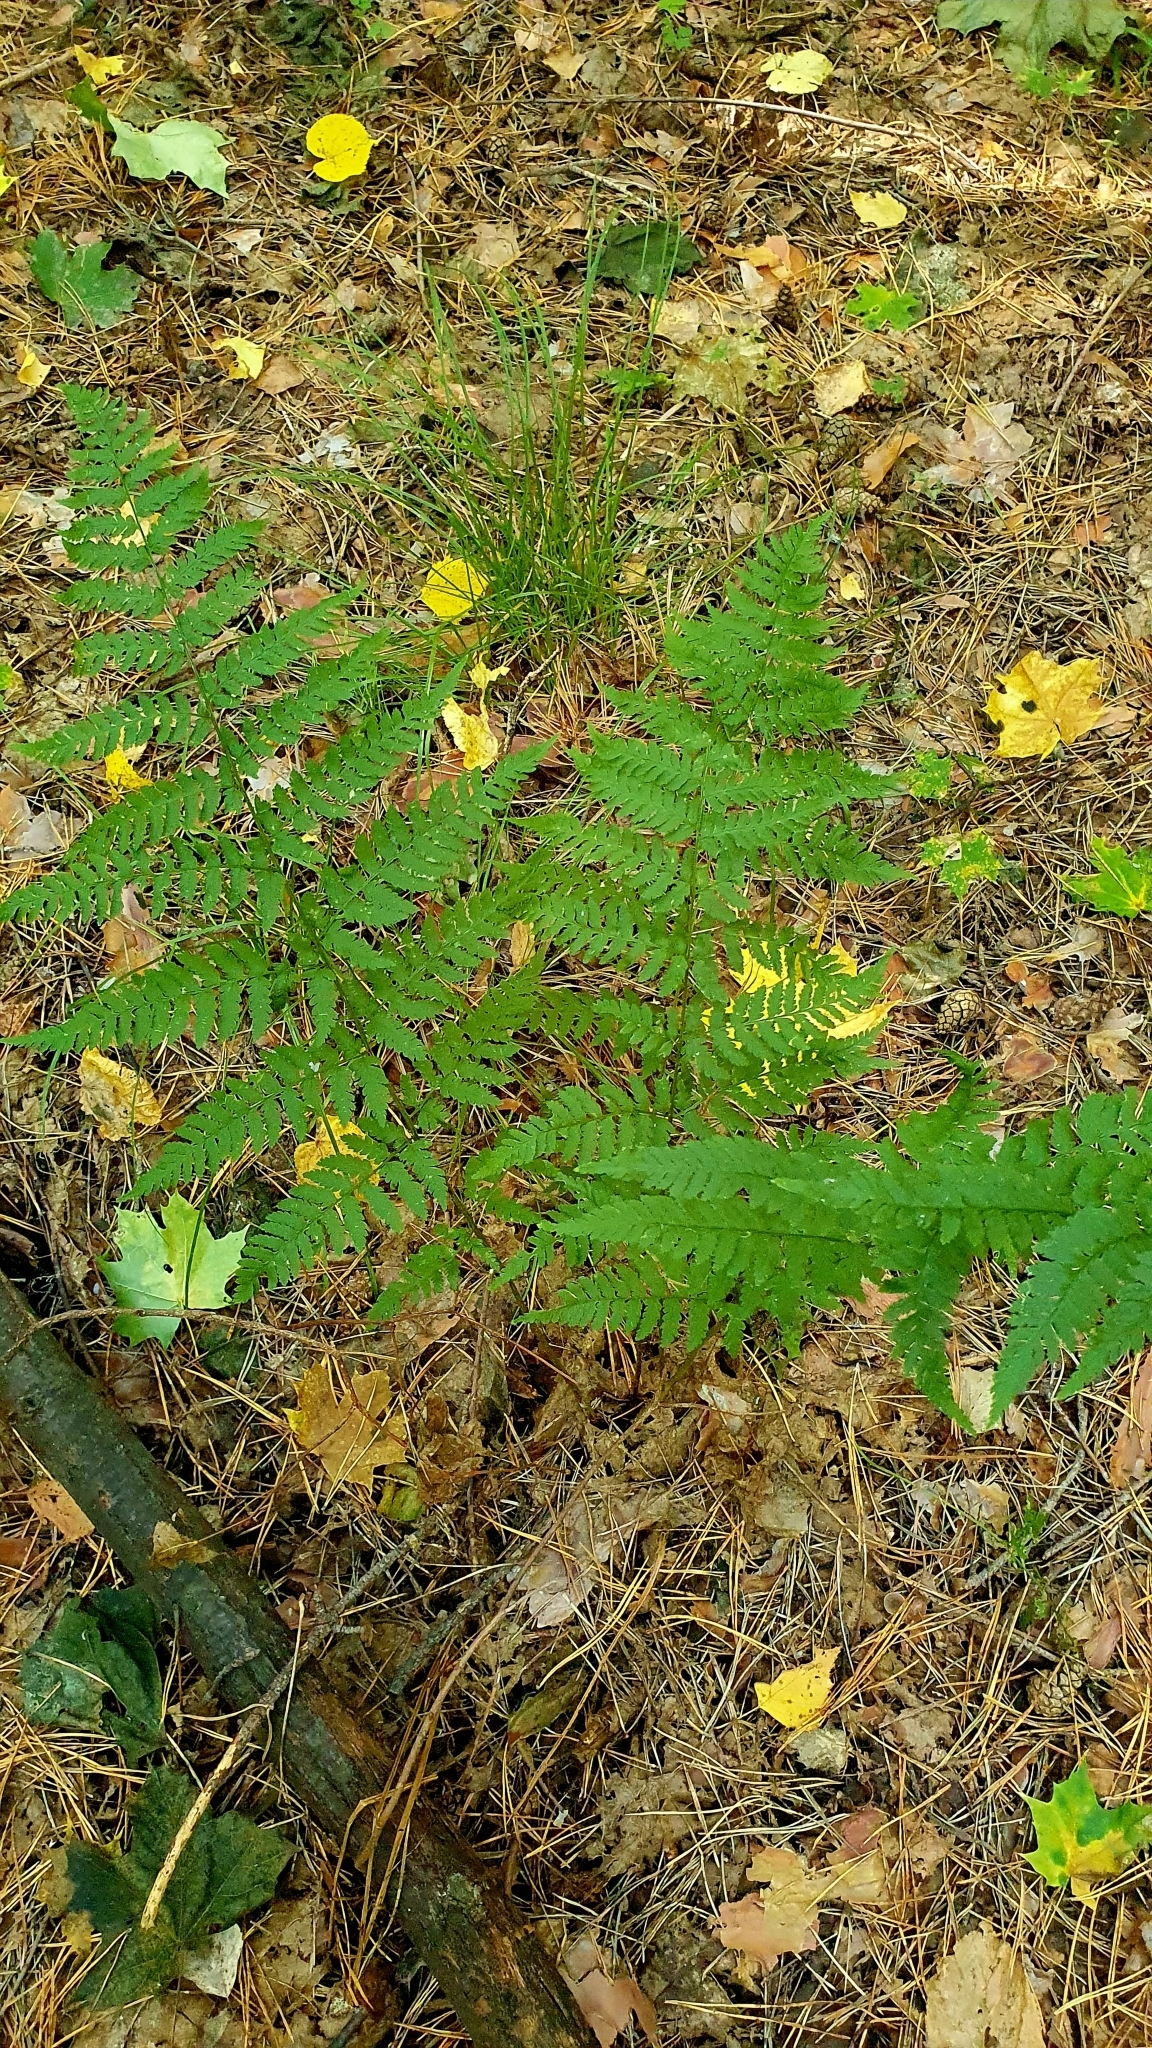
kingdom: Plantae
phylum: Tracheophyta
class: Polypodiopsida
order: Polypodiales
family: Dryopteridaceae
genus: Dryopteris
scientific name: Dryopteris filix-mas
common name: Male fern
